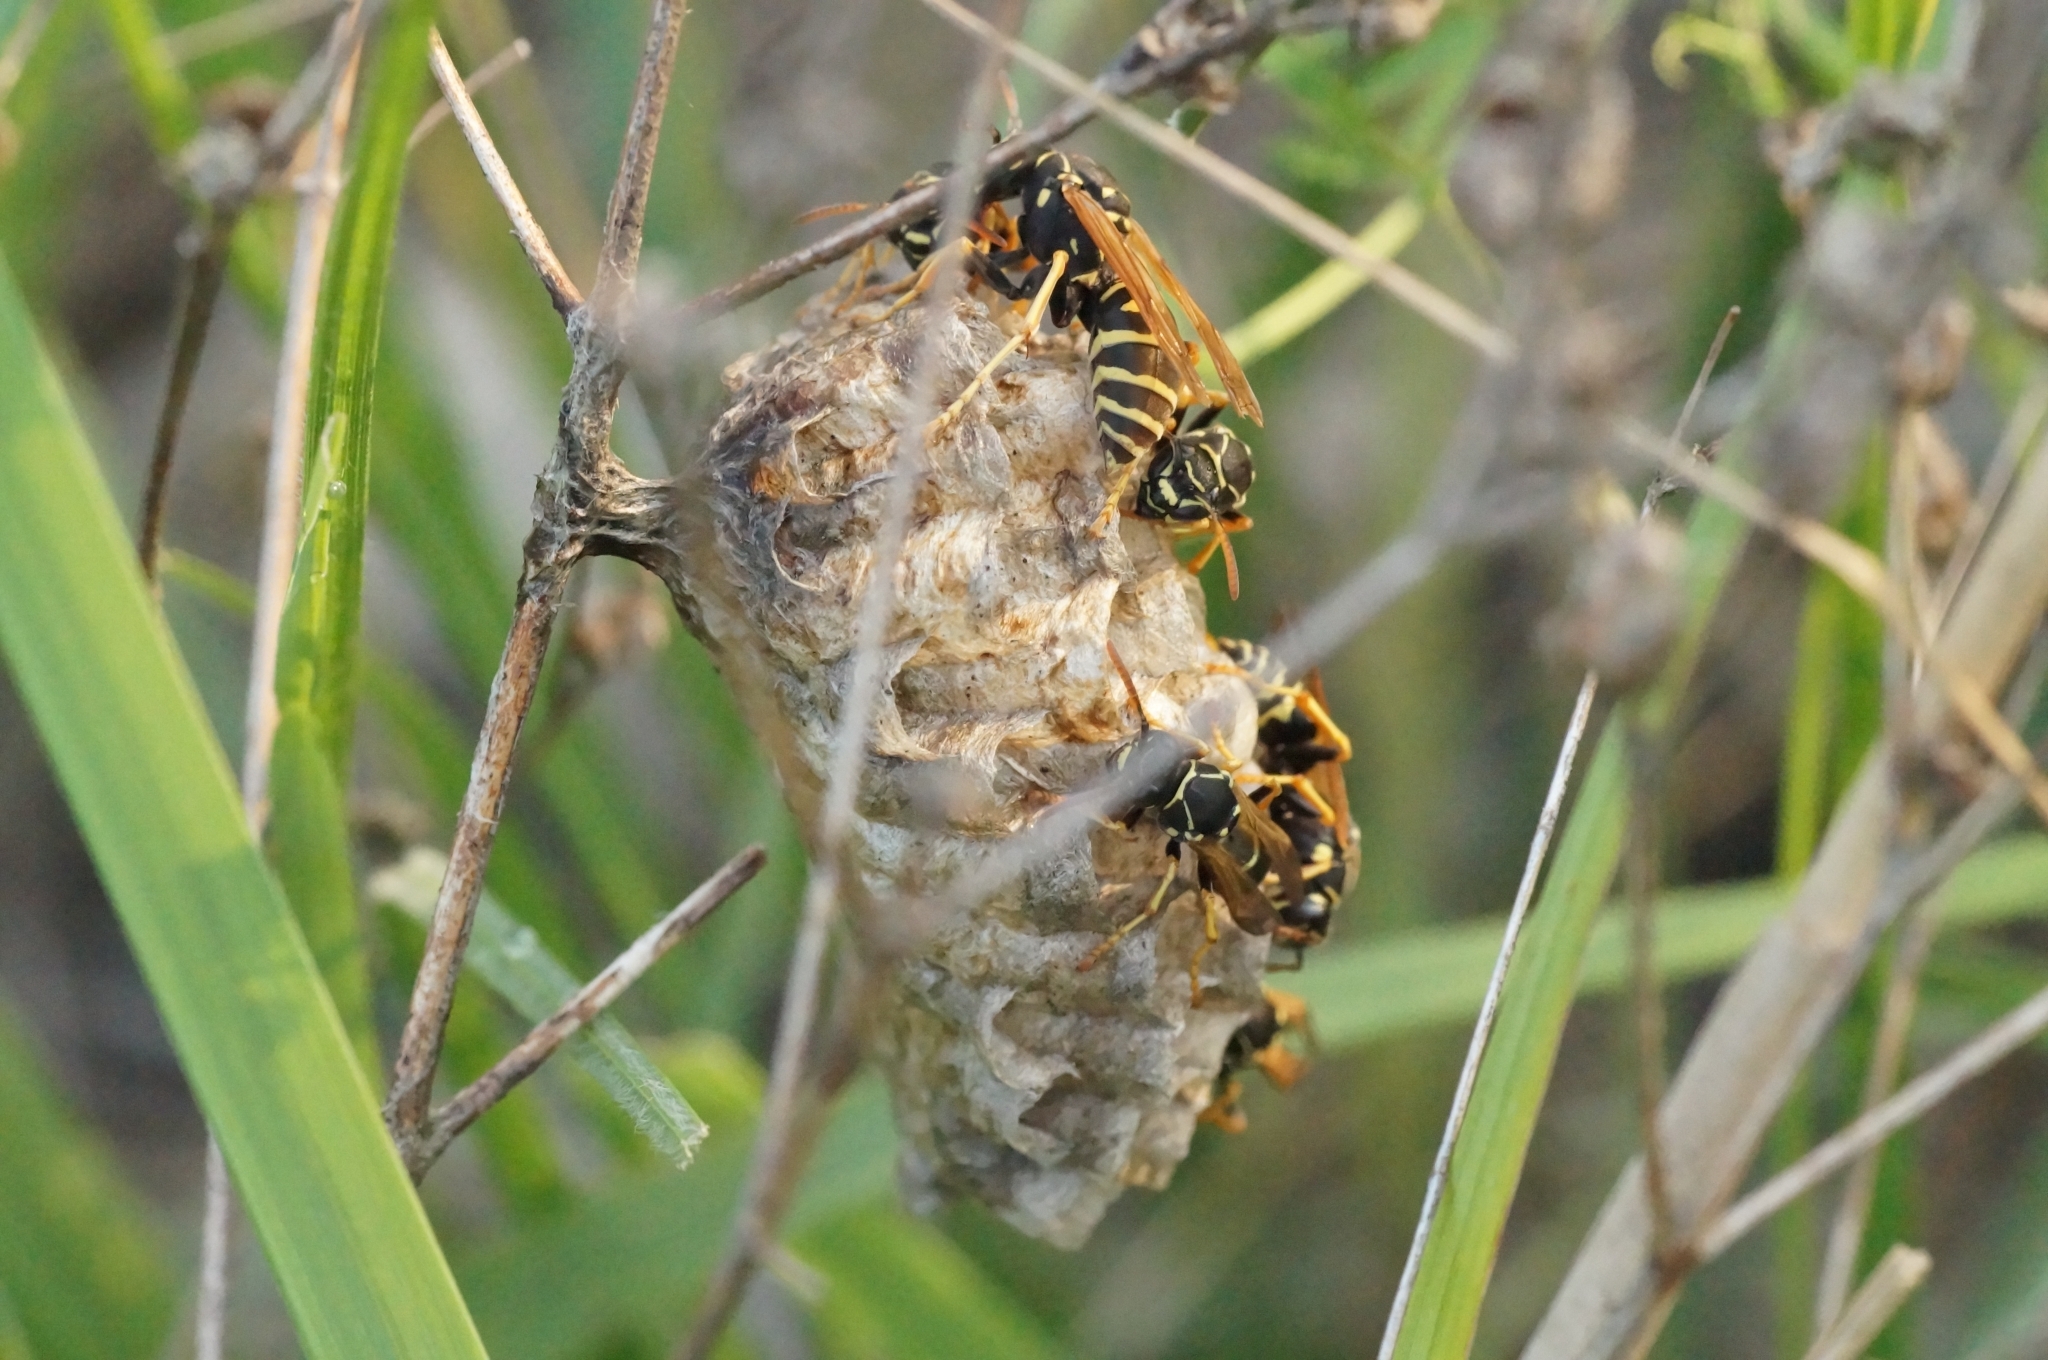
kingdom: Animalia
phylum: Arthropoda
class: Insecta
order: Hymenoptera
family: Eumenidae
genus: Polistes
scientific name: Polistes nimpha
